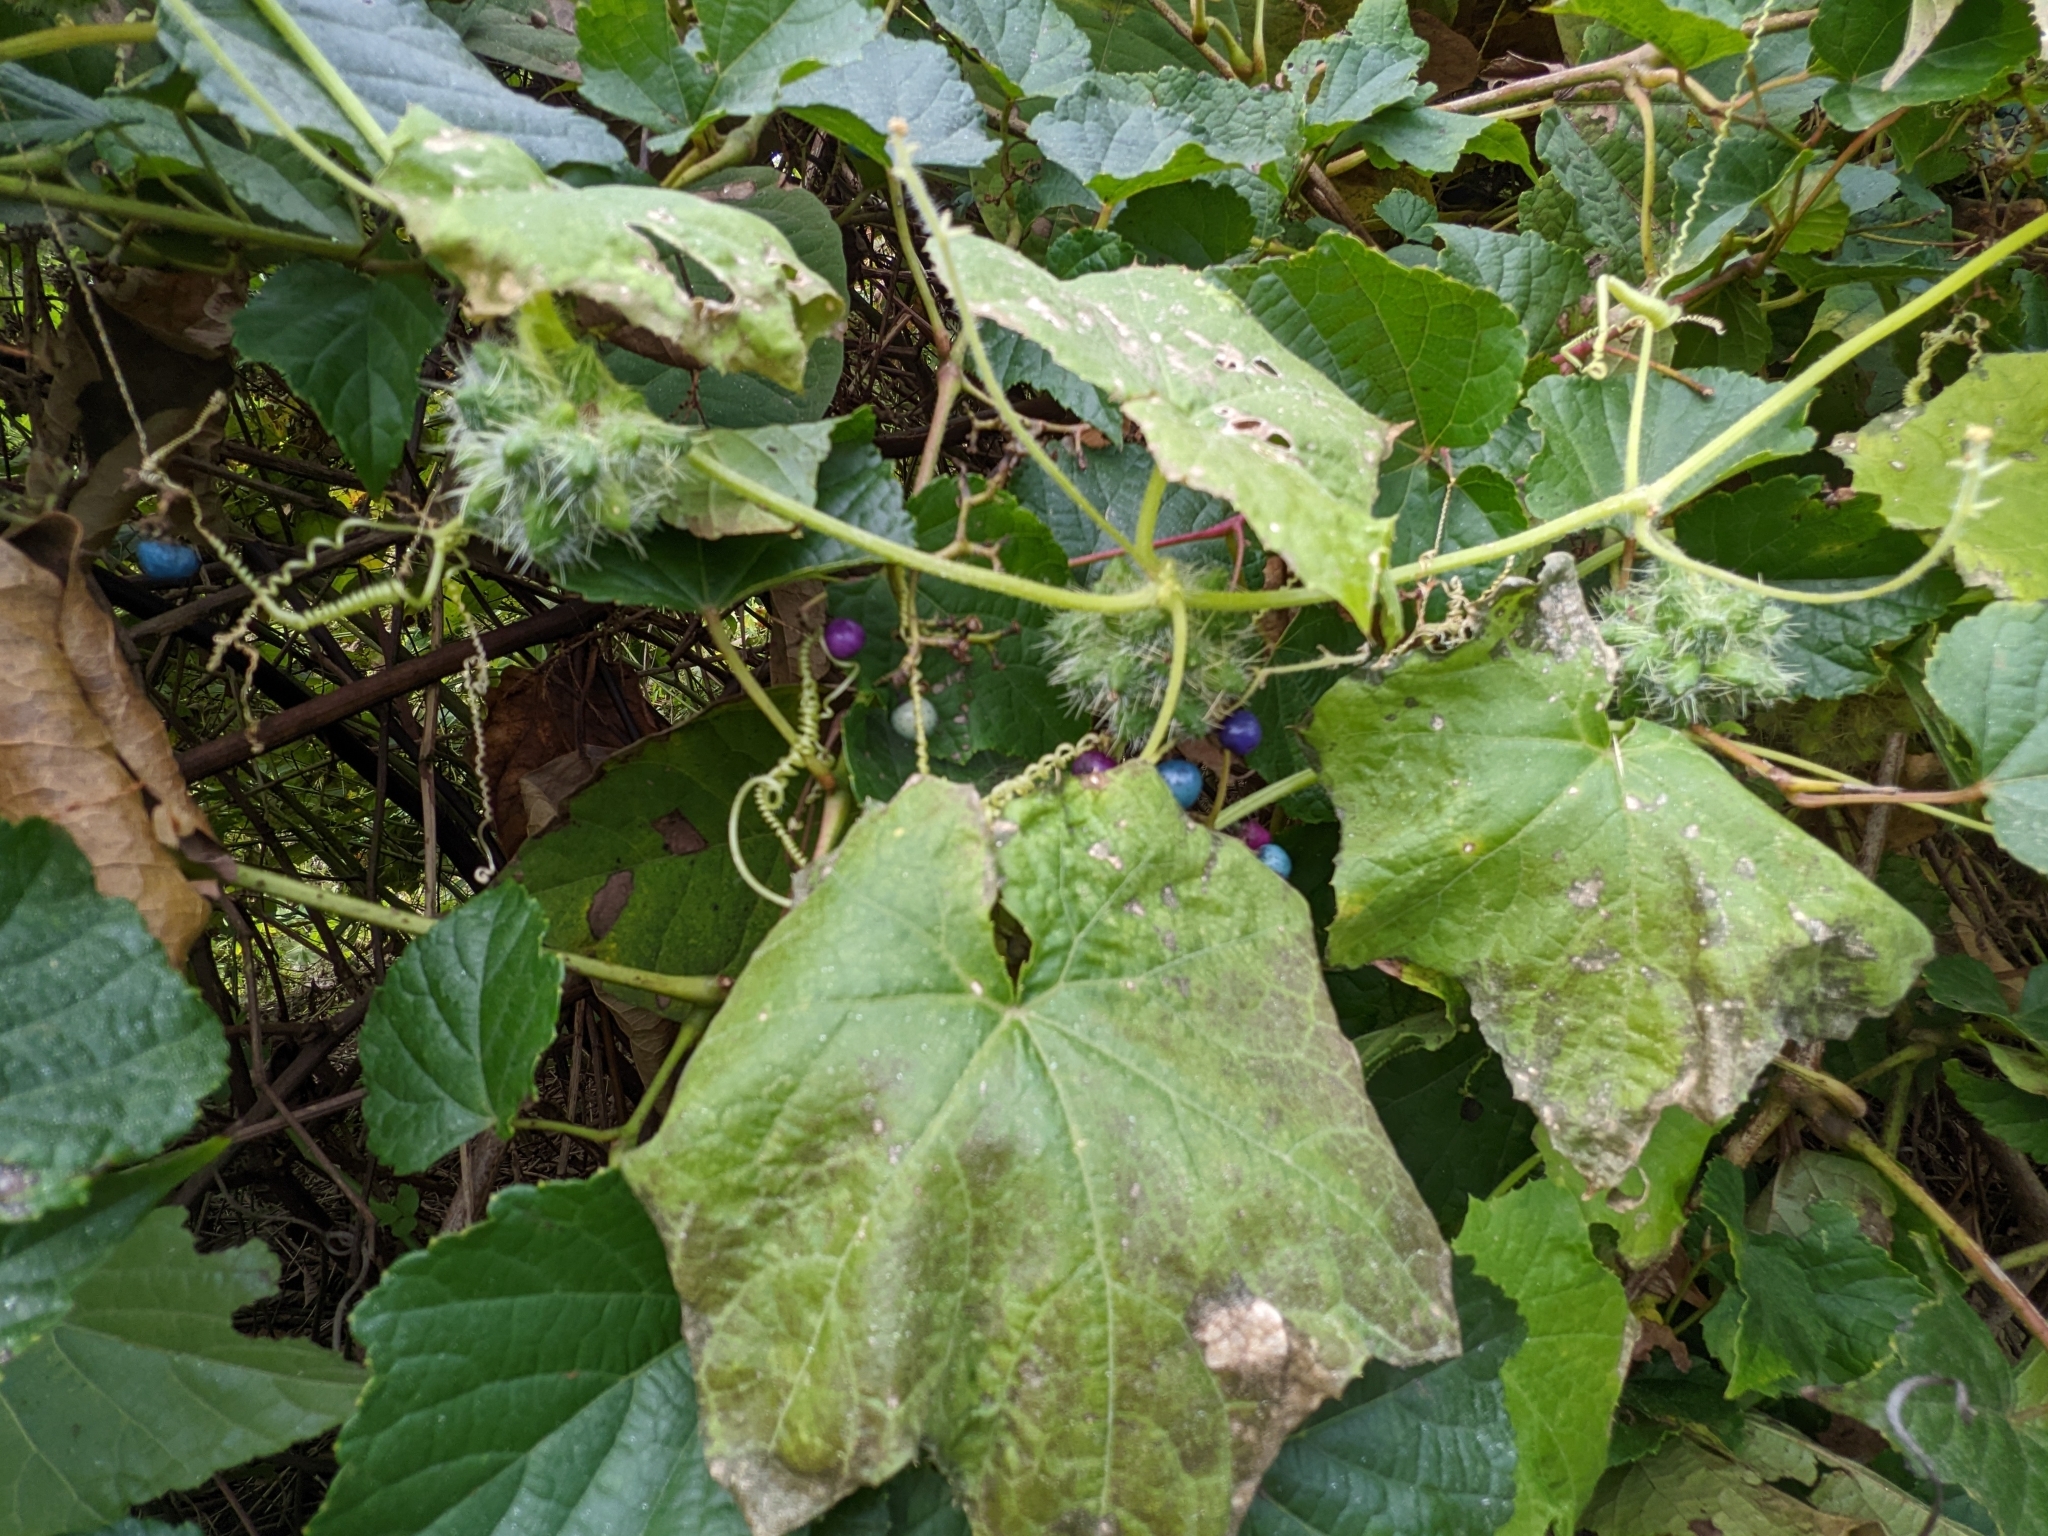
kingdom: Plantae
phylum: Tracheophyta
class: Magnoliopsida
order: Cucurbitales
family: Cucurbitaceae
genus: Sicyos
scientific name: Sicyos angulatus
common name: Angled burr cucumber
